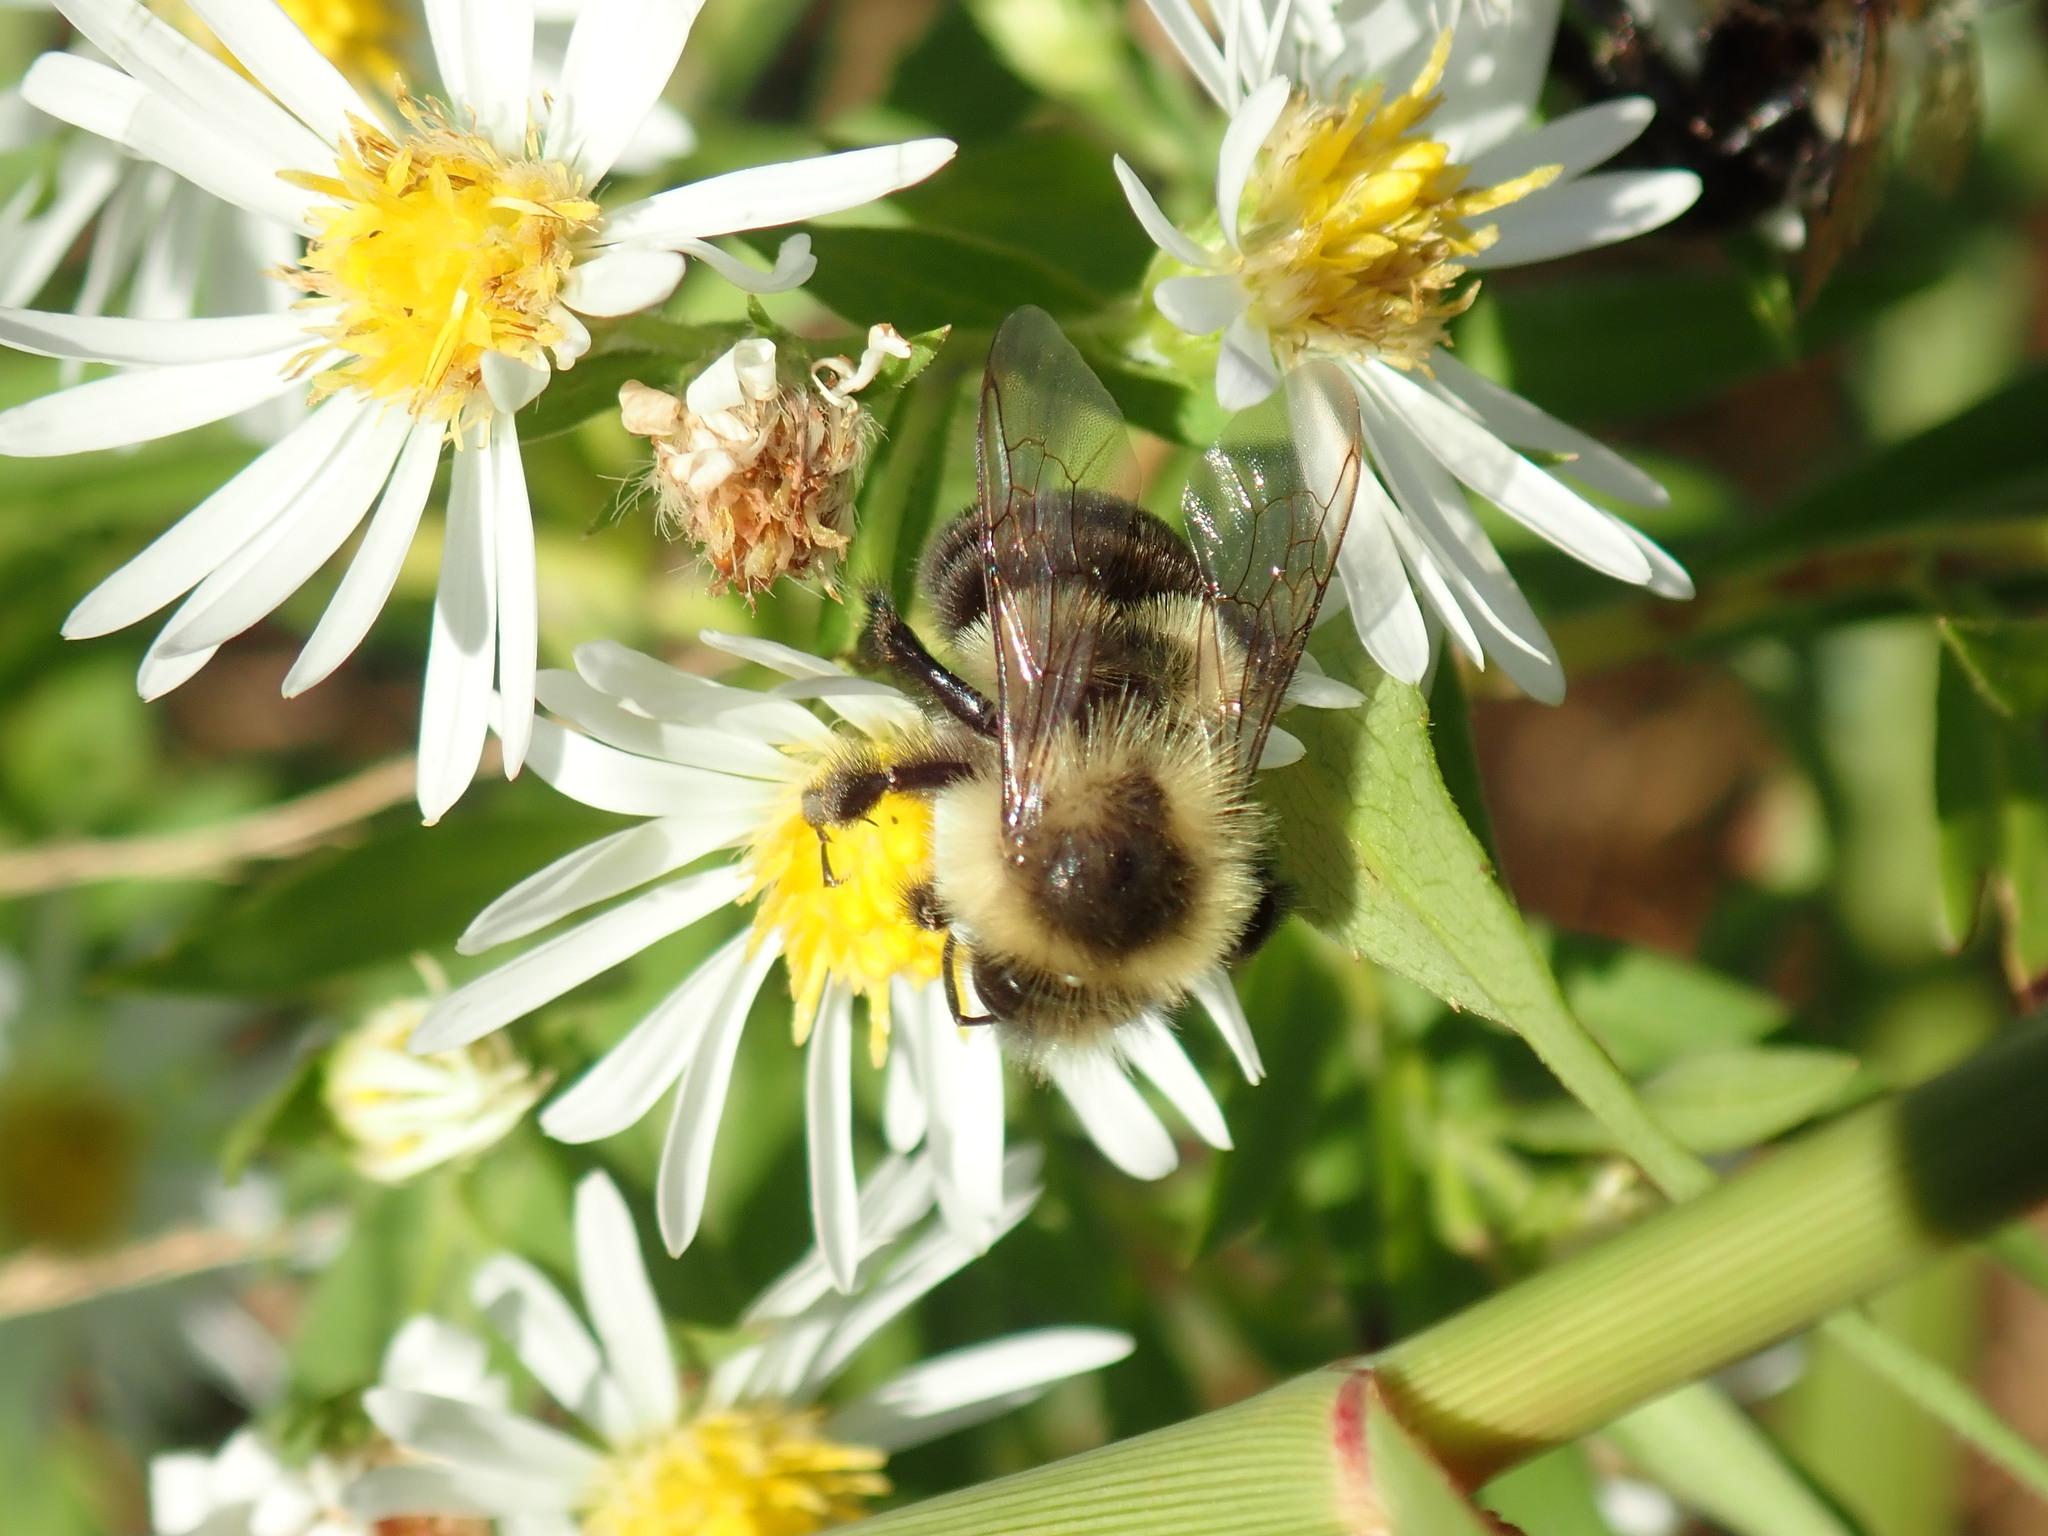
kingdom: Animalia
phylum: Arthropoda
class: Insecta
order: Hymenoptera
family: Apidae
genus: Bombus
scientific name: Bombus impatiens
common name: Common eastern bumble bee
